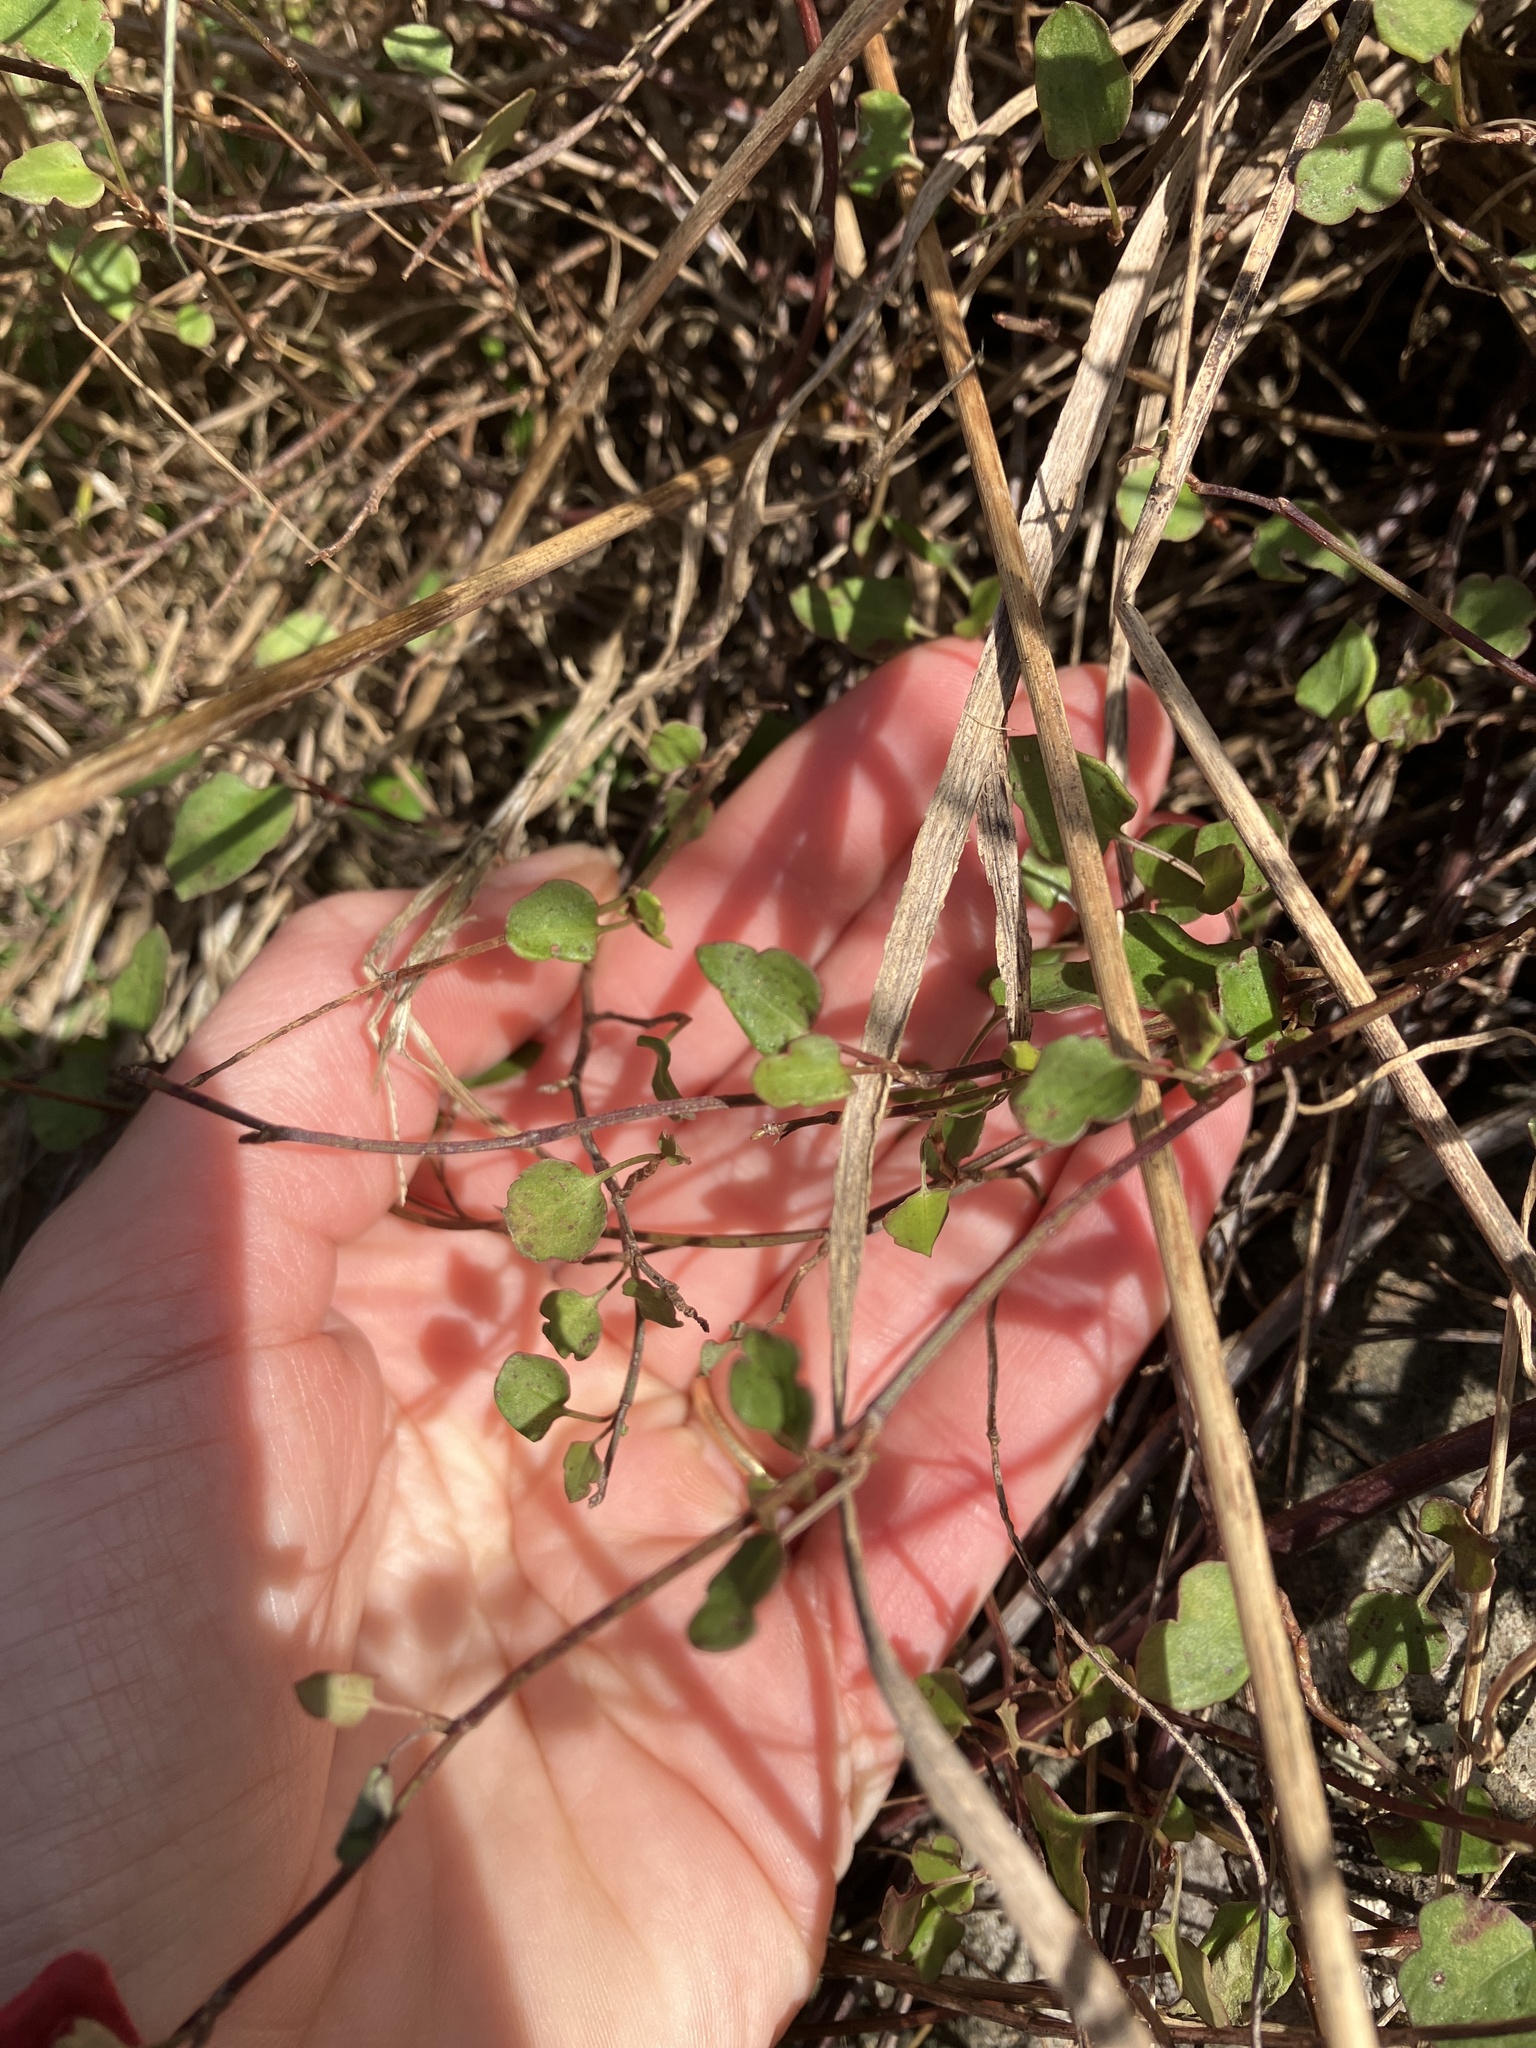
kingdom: Plantae
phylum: Tracheophyta
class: Magnoliopsida
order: Caryophyllales
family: Polygonaceae
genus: Muehlenbeckia
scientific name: Muehlenbeckia complexa
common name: Wireplant
